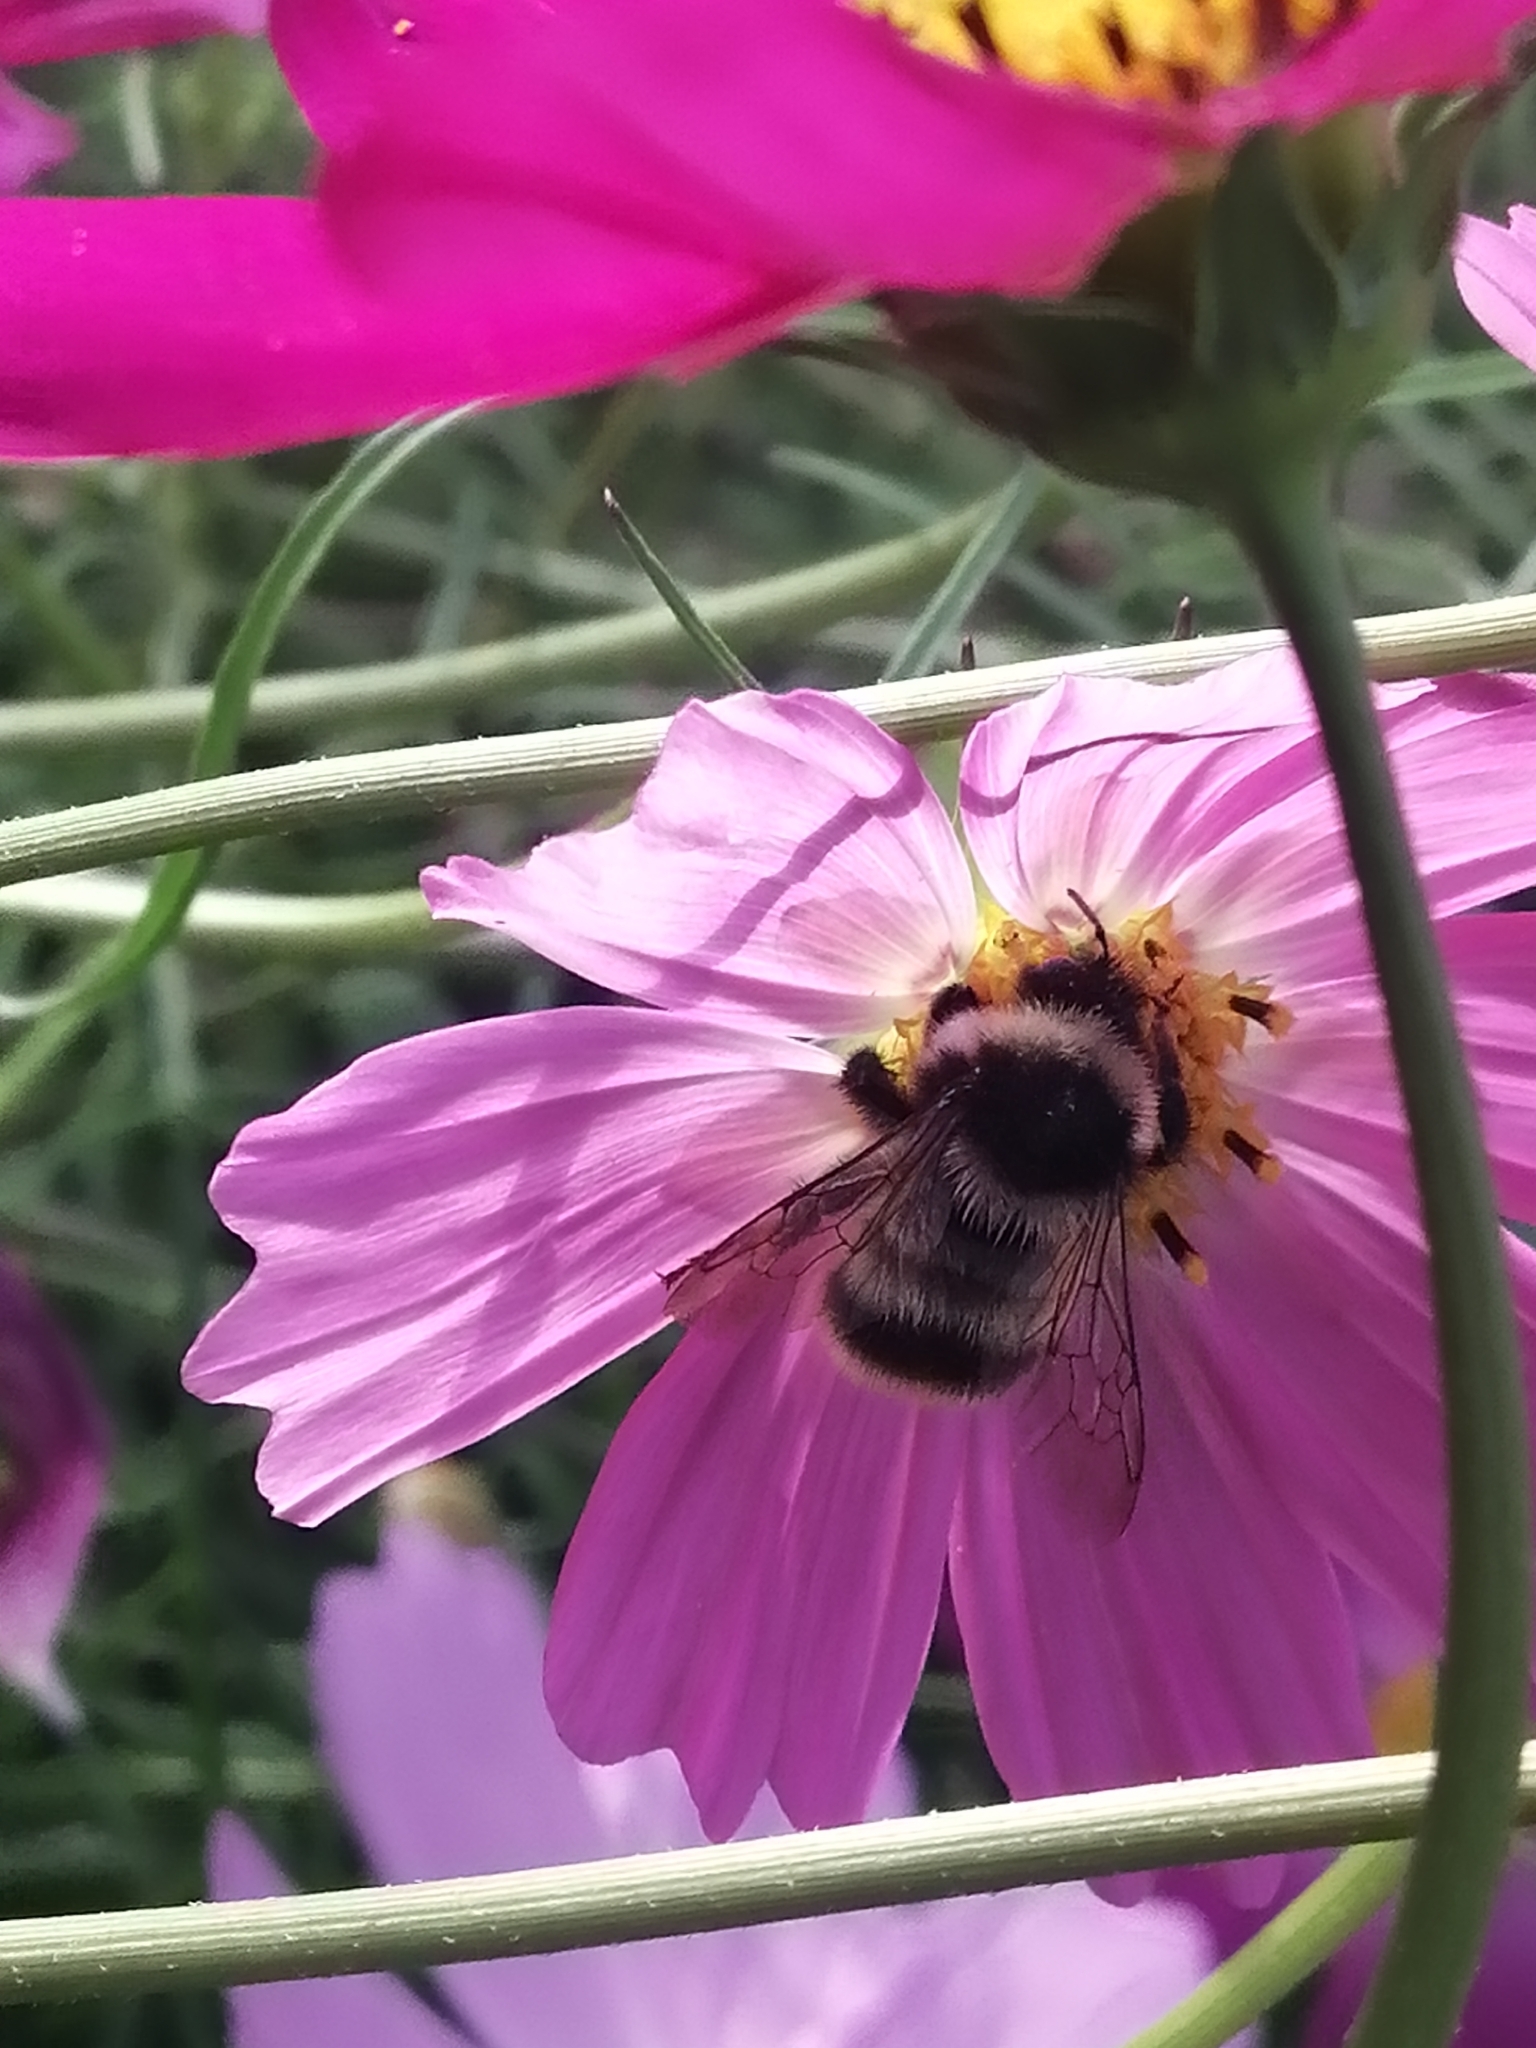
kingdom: Animalia
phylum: Arthropoda
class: Insecta
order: Hymenoptera
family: Apidae
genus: Bombus
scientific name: Bombus sichelii
